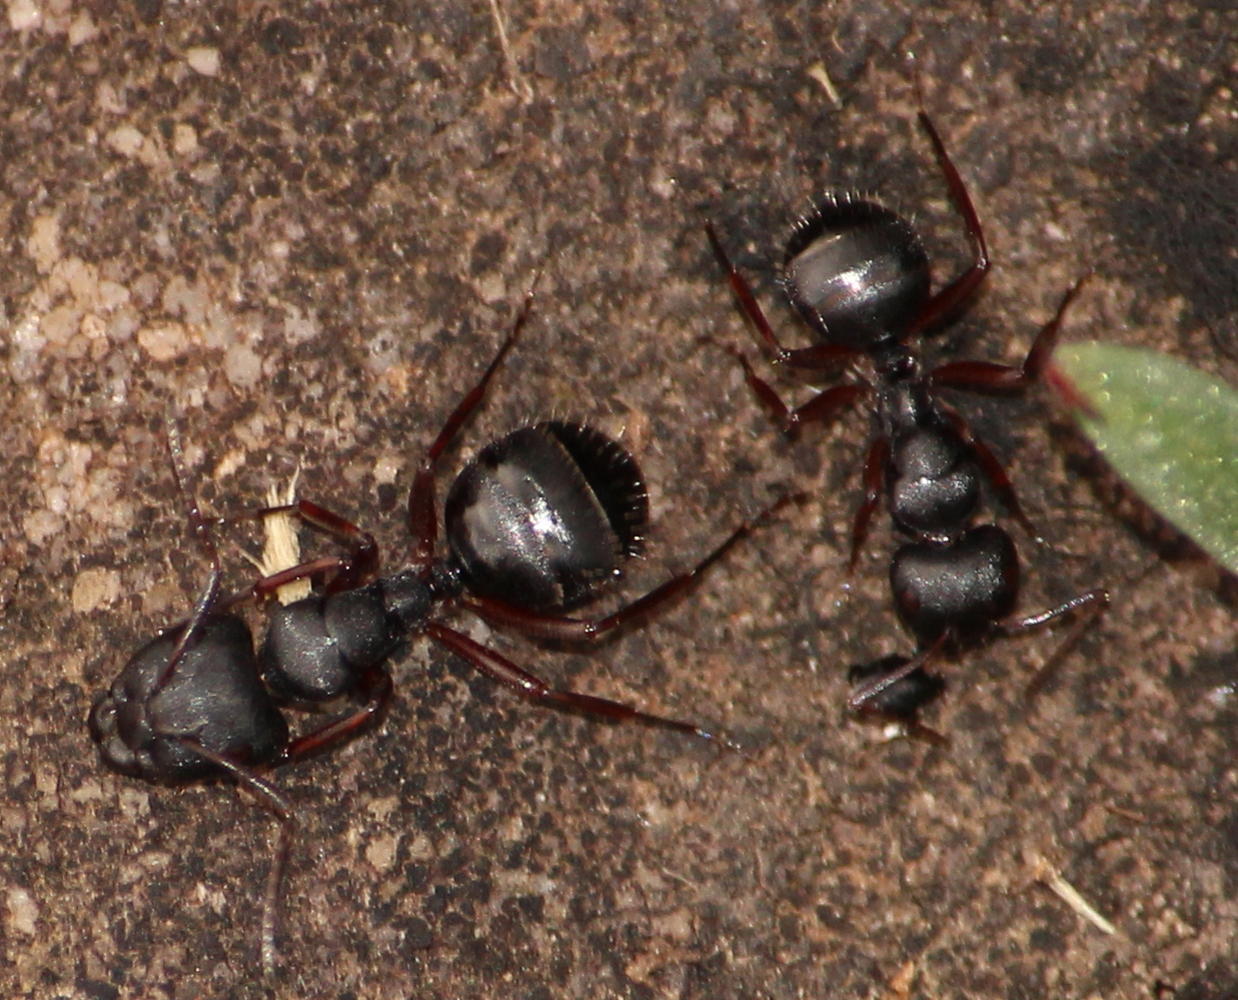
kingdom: Animalia
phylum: Arthropoda
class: Insecta
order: Hymenoptera
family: Formicidae
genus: Camponotus
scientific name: Camponotus scalaris
